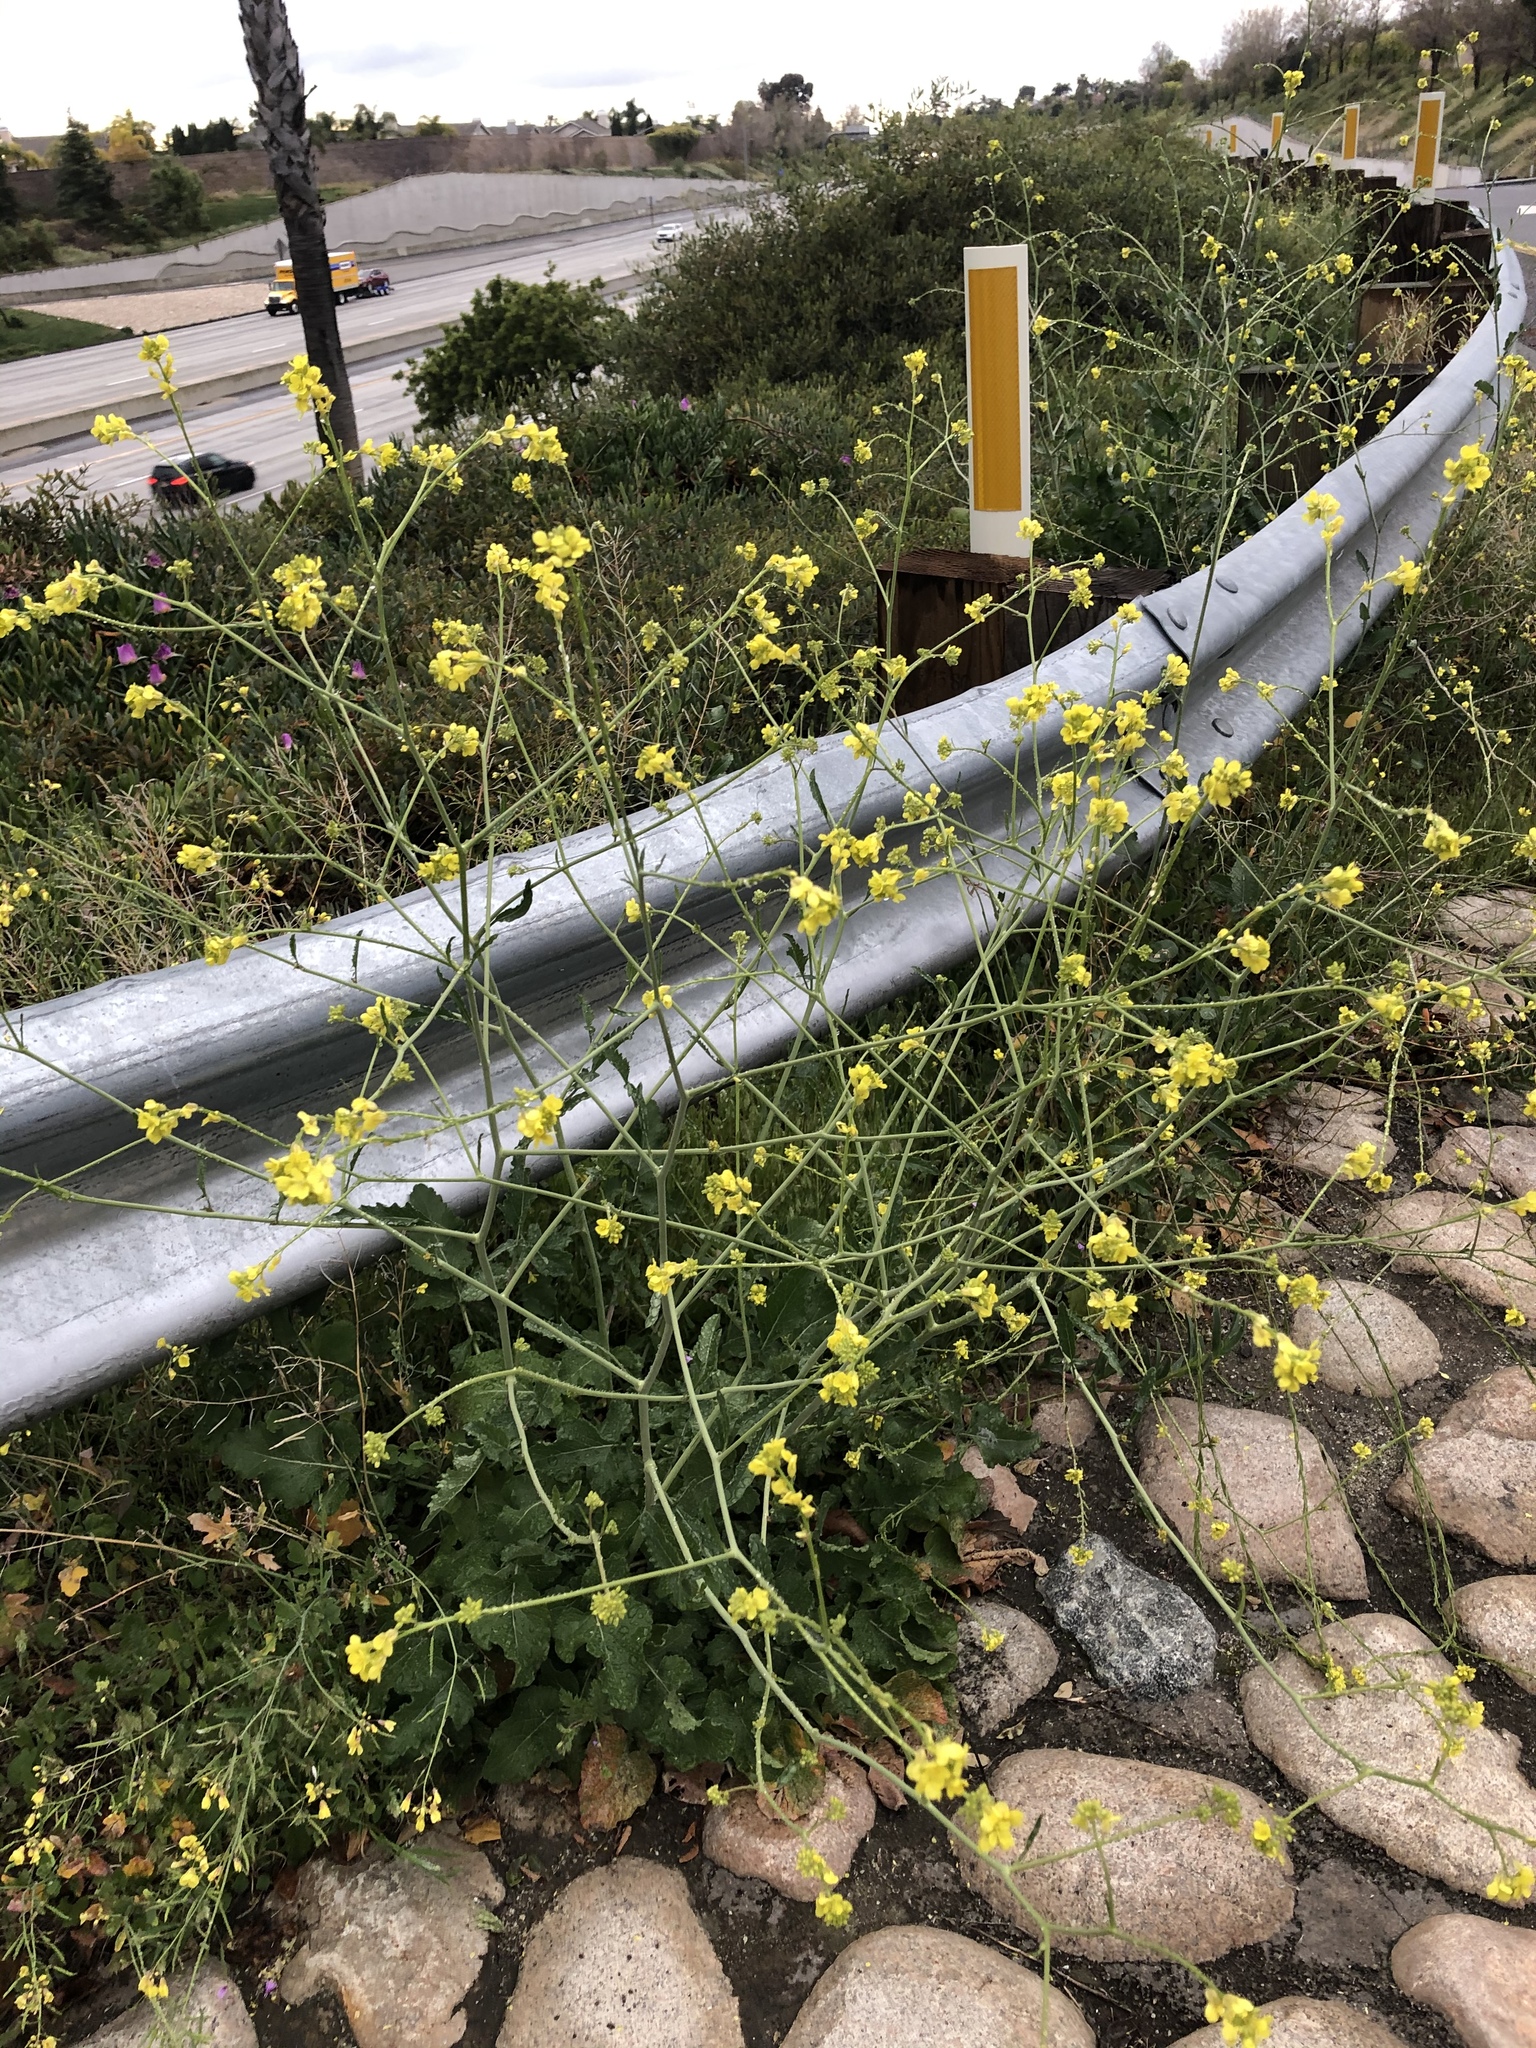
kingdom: Plantae
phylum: Tracheophyta
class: Magnoliopsida
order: Brassicales
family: Brassicaceae
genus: Hirschfeldia
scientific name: Hirschfeldia incana
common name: Hoary mustard
